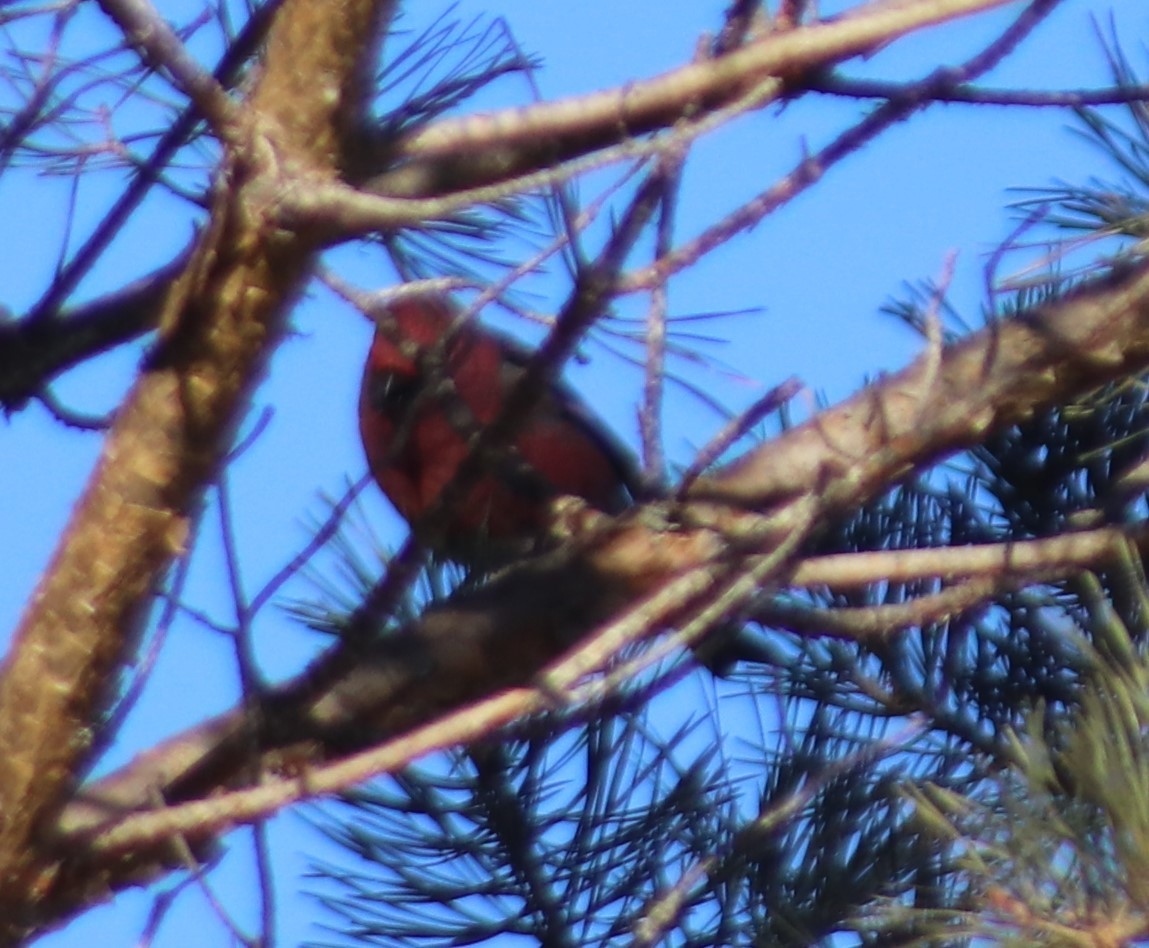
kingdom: Animalia
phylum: Chordata
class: Aves
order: Passeriformes
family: Fringillidae
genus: Pinicola
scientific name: Pinicola enucleator
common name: Pine grosbeak
